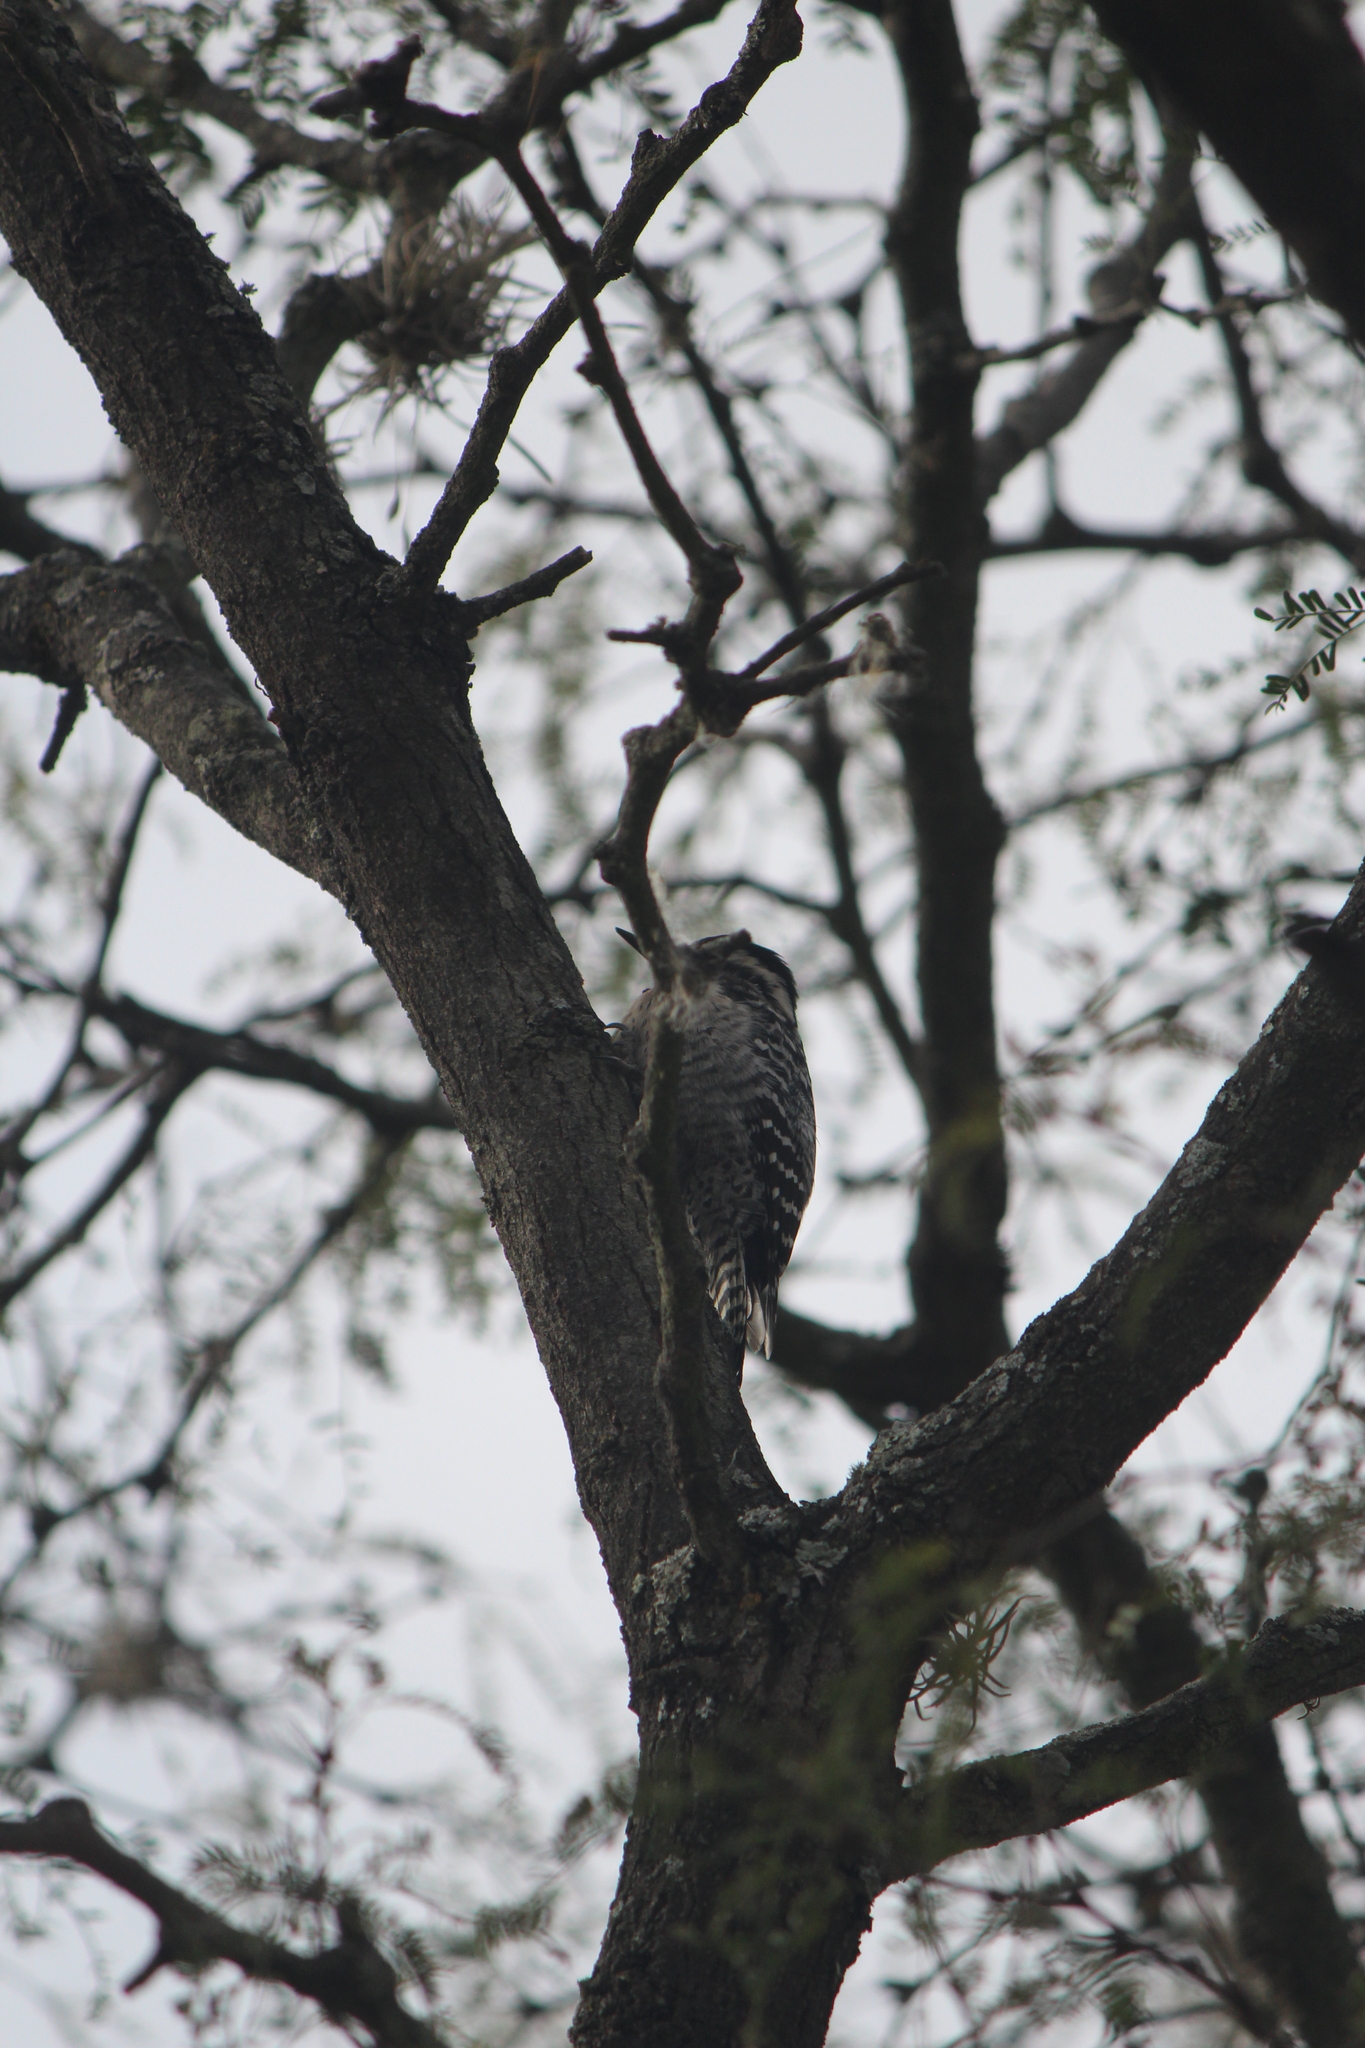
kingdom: Animalia
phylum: Chordata
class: Aves
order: Piciformes
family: Picidae
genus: Dryobates
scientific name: Dryobates scalaris
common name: Ladder-backed woodpecker
